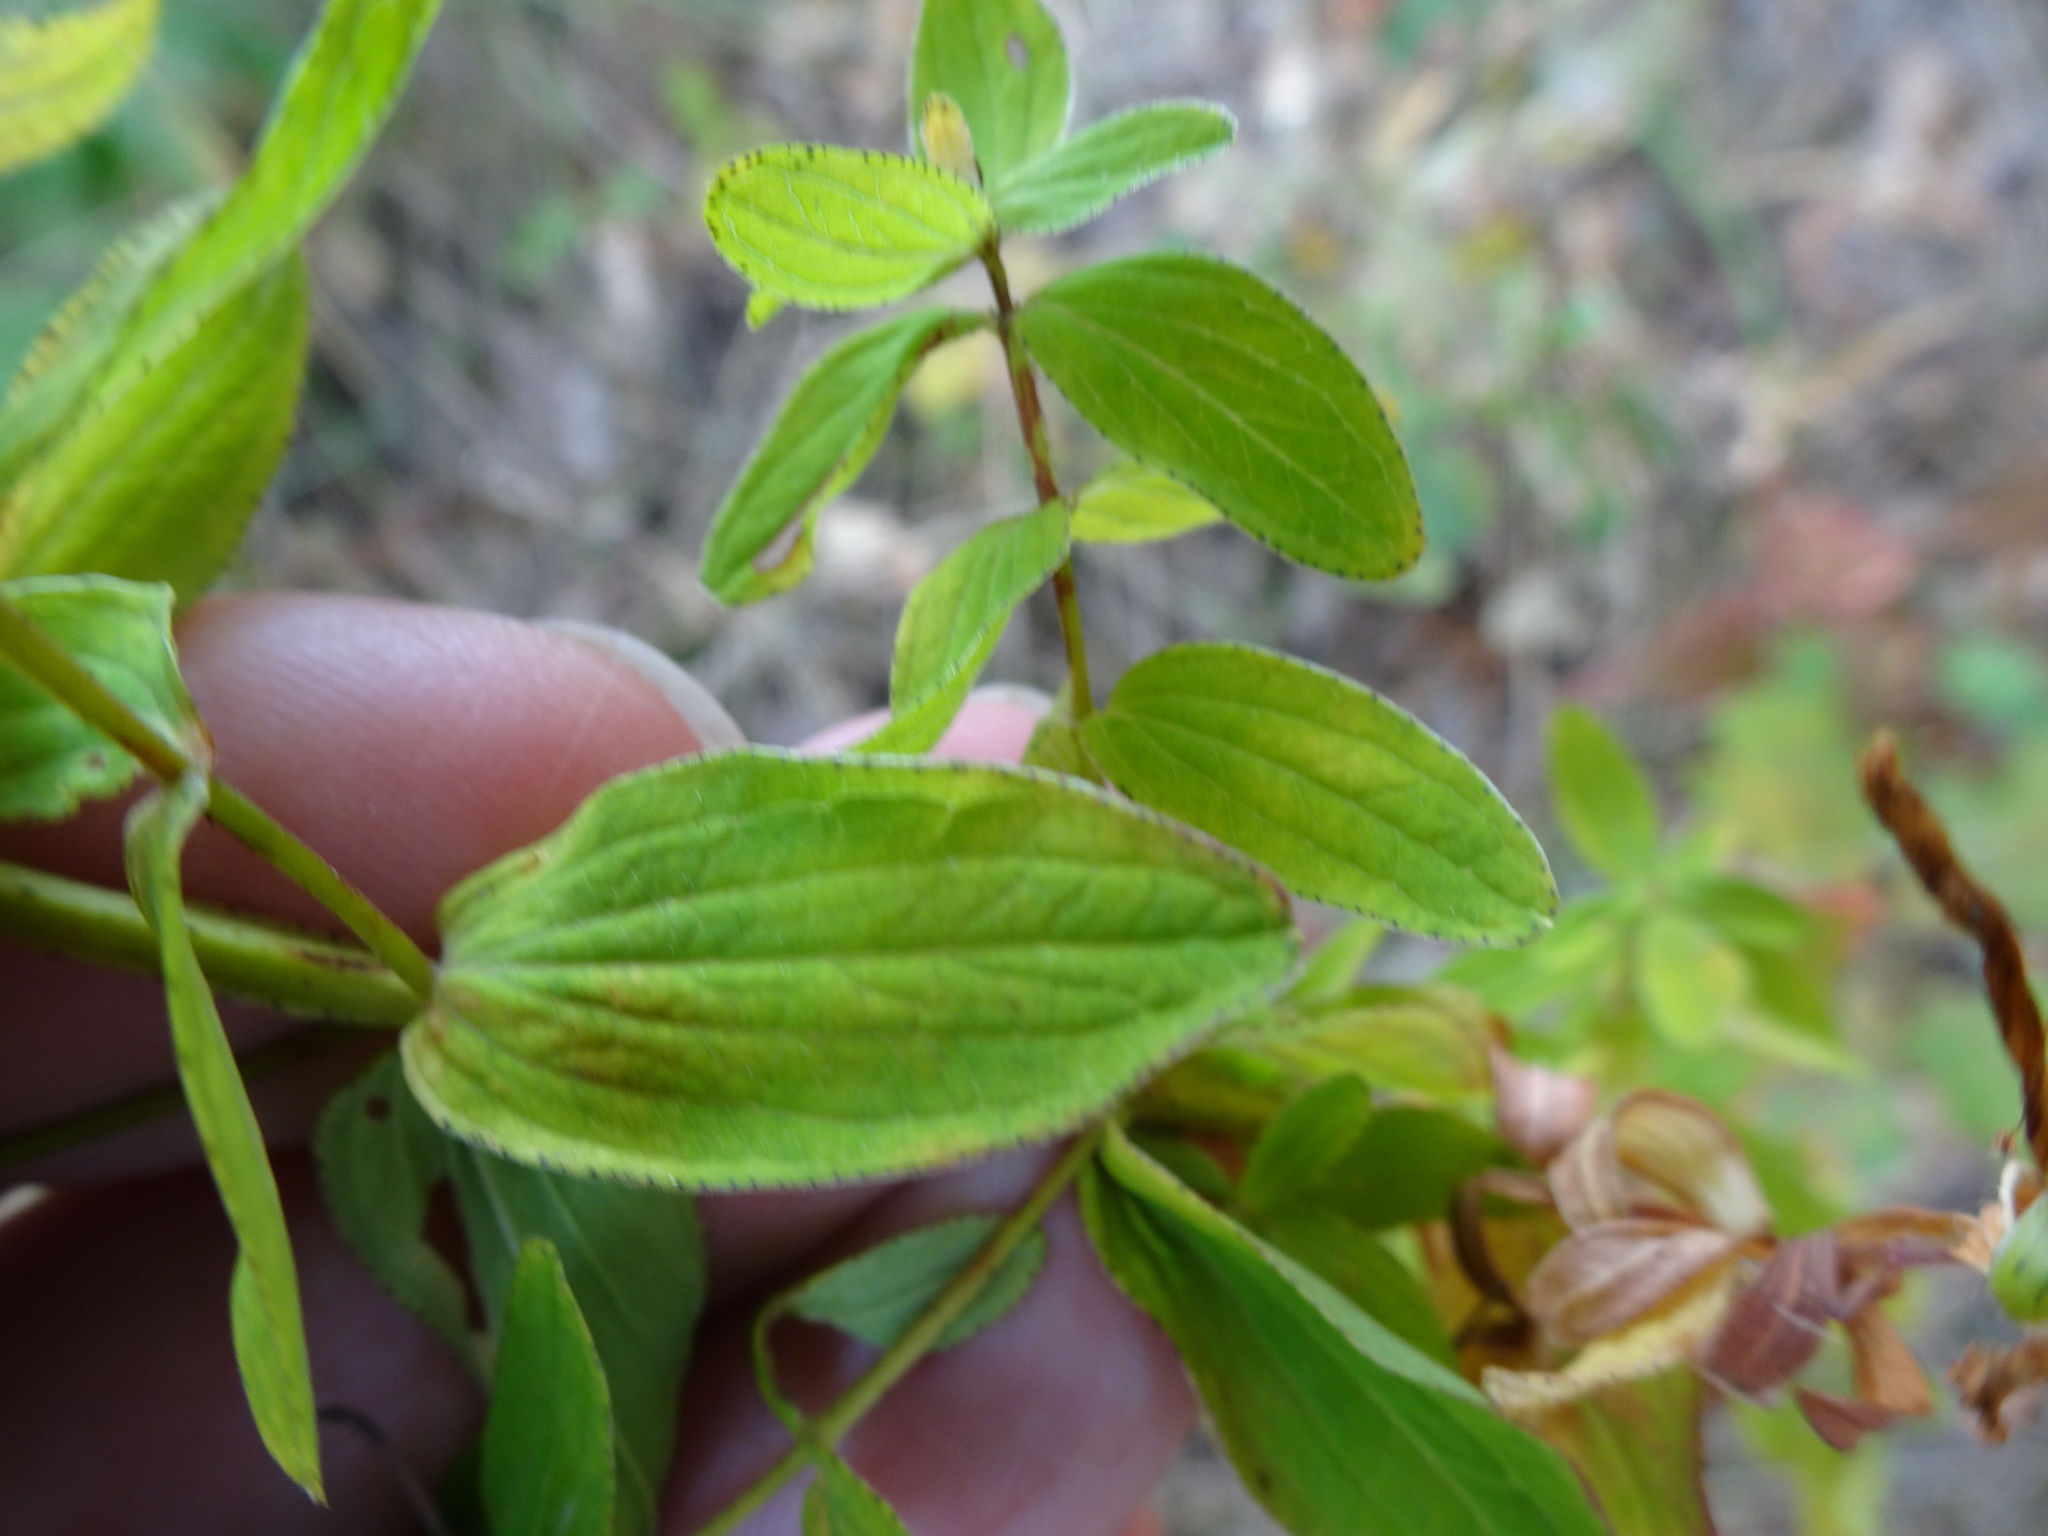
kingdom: Plantae
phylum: Tracheophyta
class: Magnoliopsida
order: Malpighiales
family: Hypericaceae
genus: Hypericum
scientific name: Hypericum dubium
